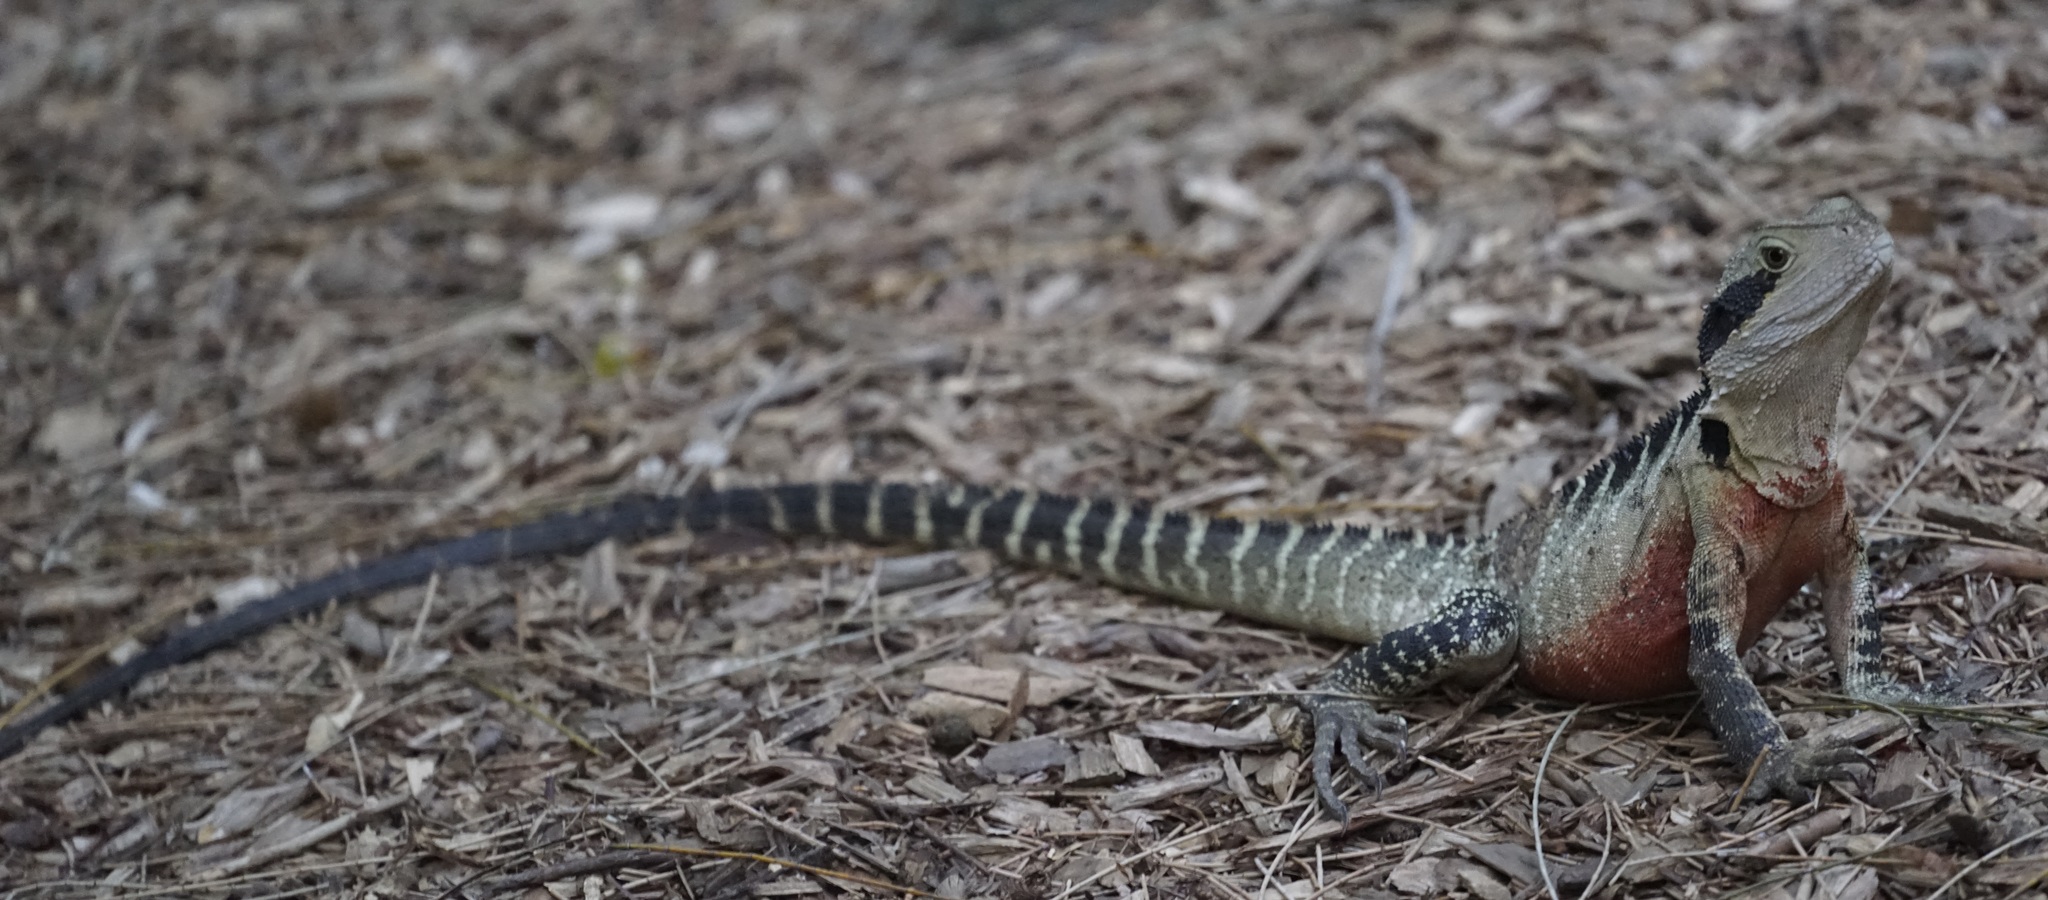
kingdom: Animalia
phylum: Chordata
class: Squamata
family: Agamidae
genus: Intellagama
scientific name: Intellagama lesueurii
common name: Eastern water dragon
